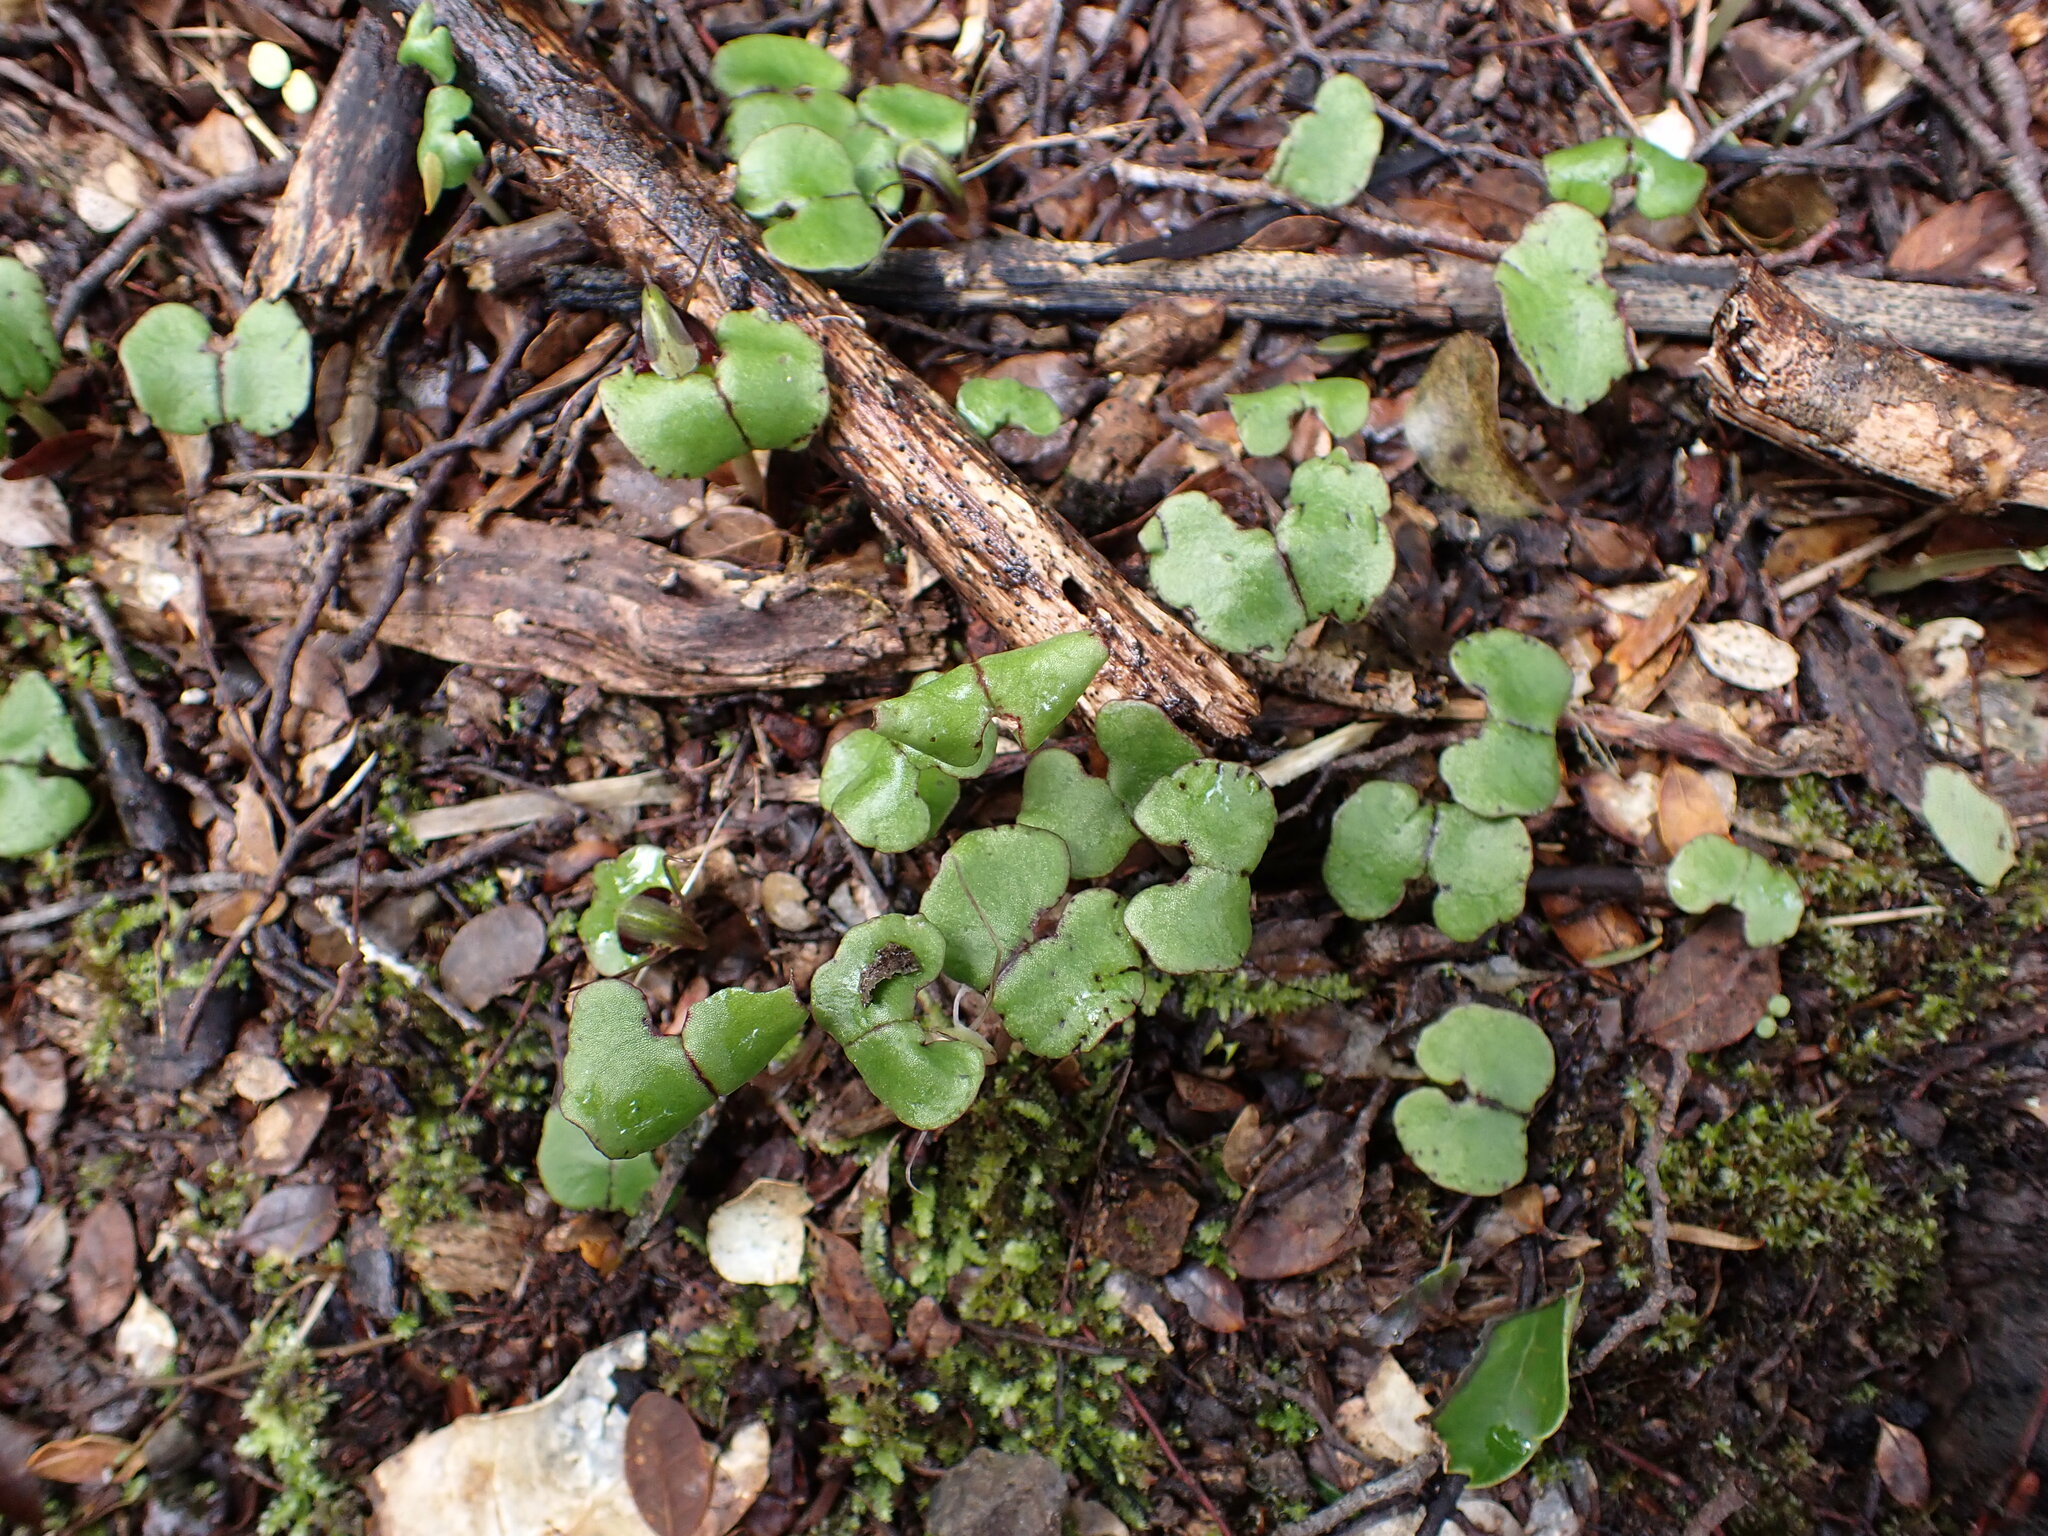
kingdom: Plantae
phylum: Tracheophyta
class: Liliopsida
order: Asparagales
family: Orchidaceae
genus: Corybas
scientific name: Corybas hypogaeus
